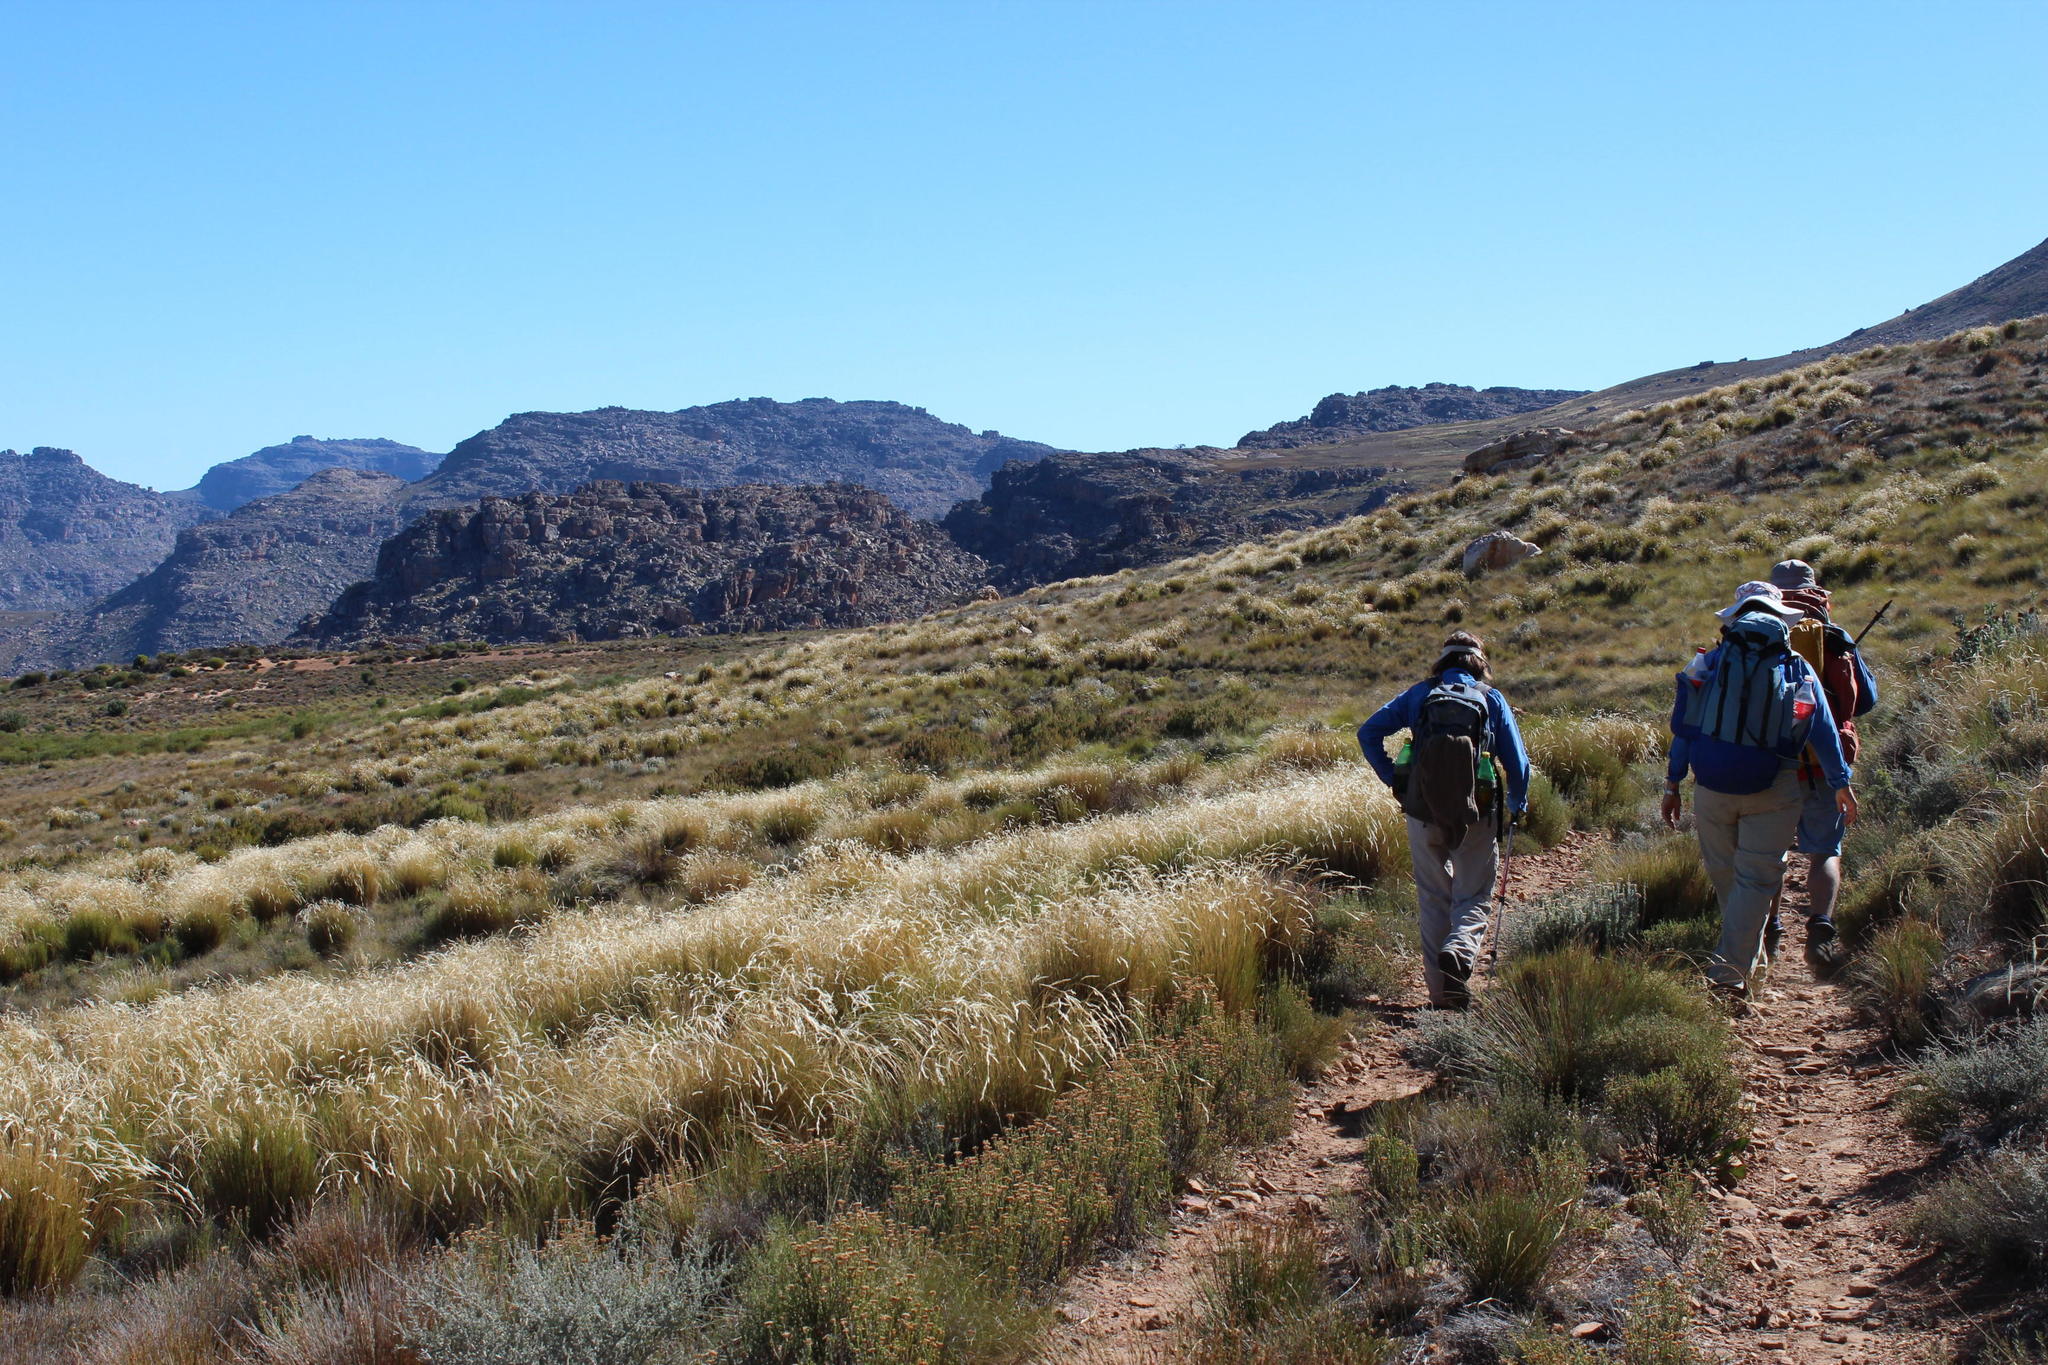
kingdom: Plantae
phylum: Tracheophyta
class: Liliopsida
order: Poales
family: Poaceae
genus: Tenaxia
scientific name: Tenaxia stricta
